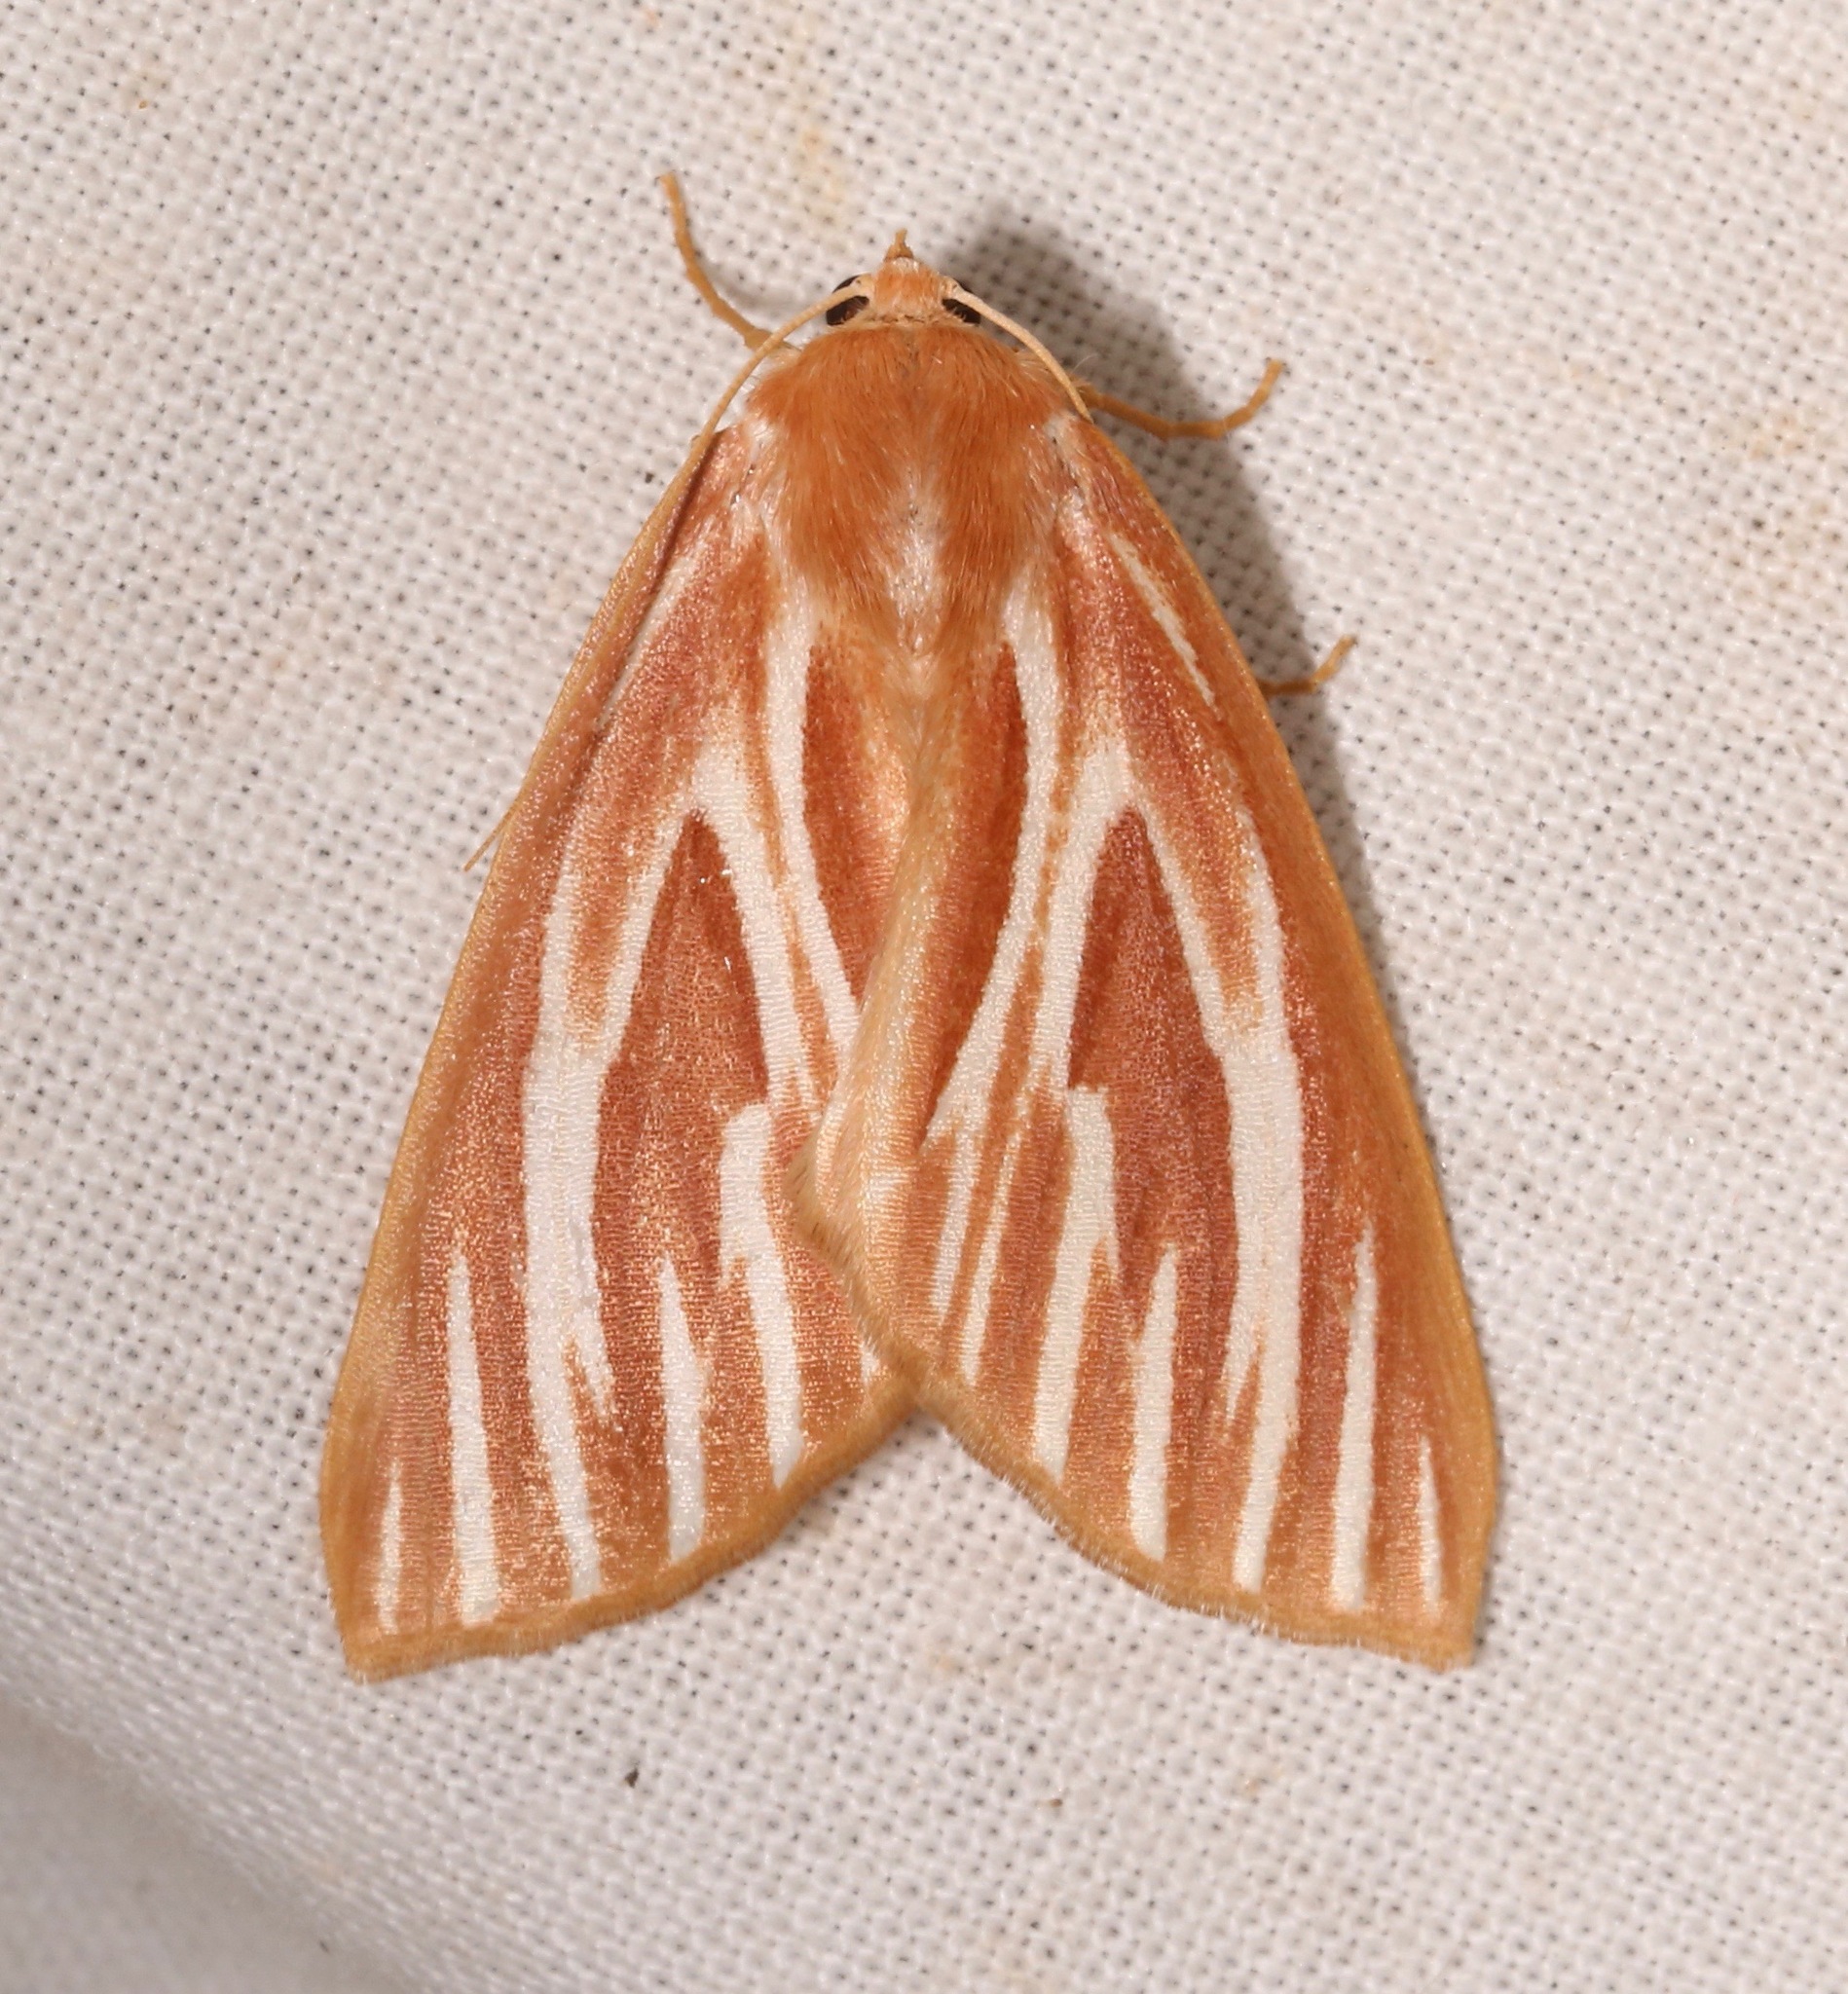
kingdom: Animalia
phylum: Arthropoda
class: Insecta
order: Lepidoptera
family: Geometridae
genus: Sabulodes
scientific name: Sabulodes niveostriata
